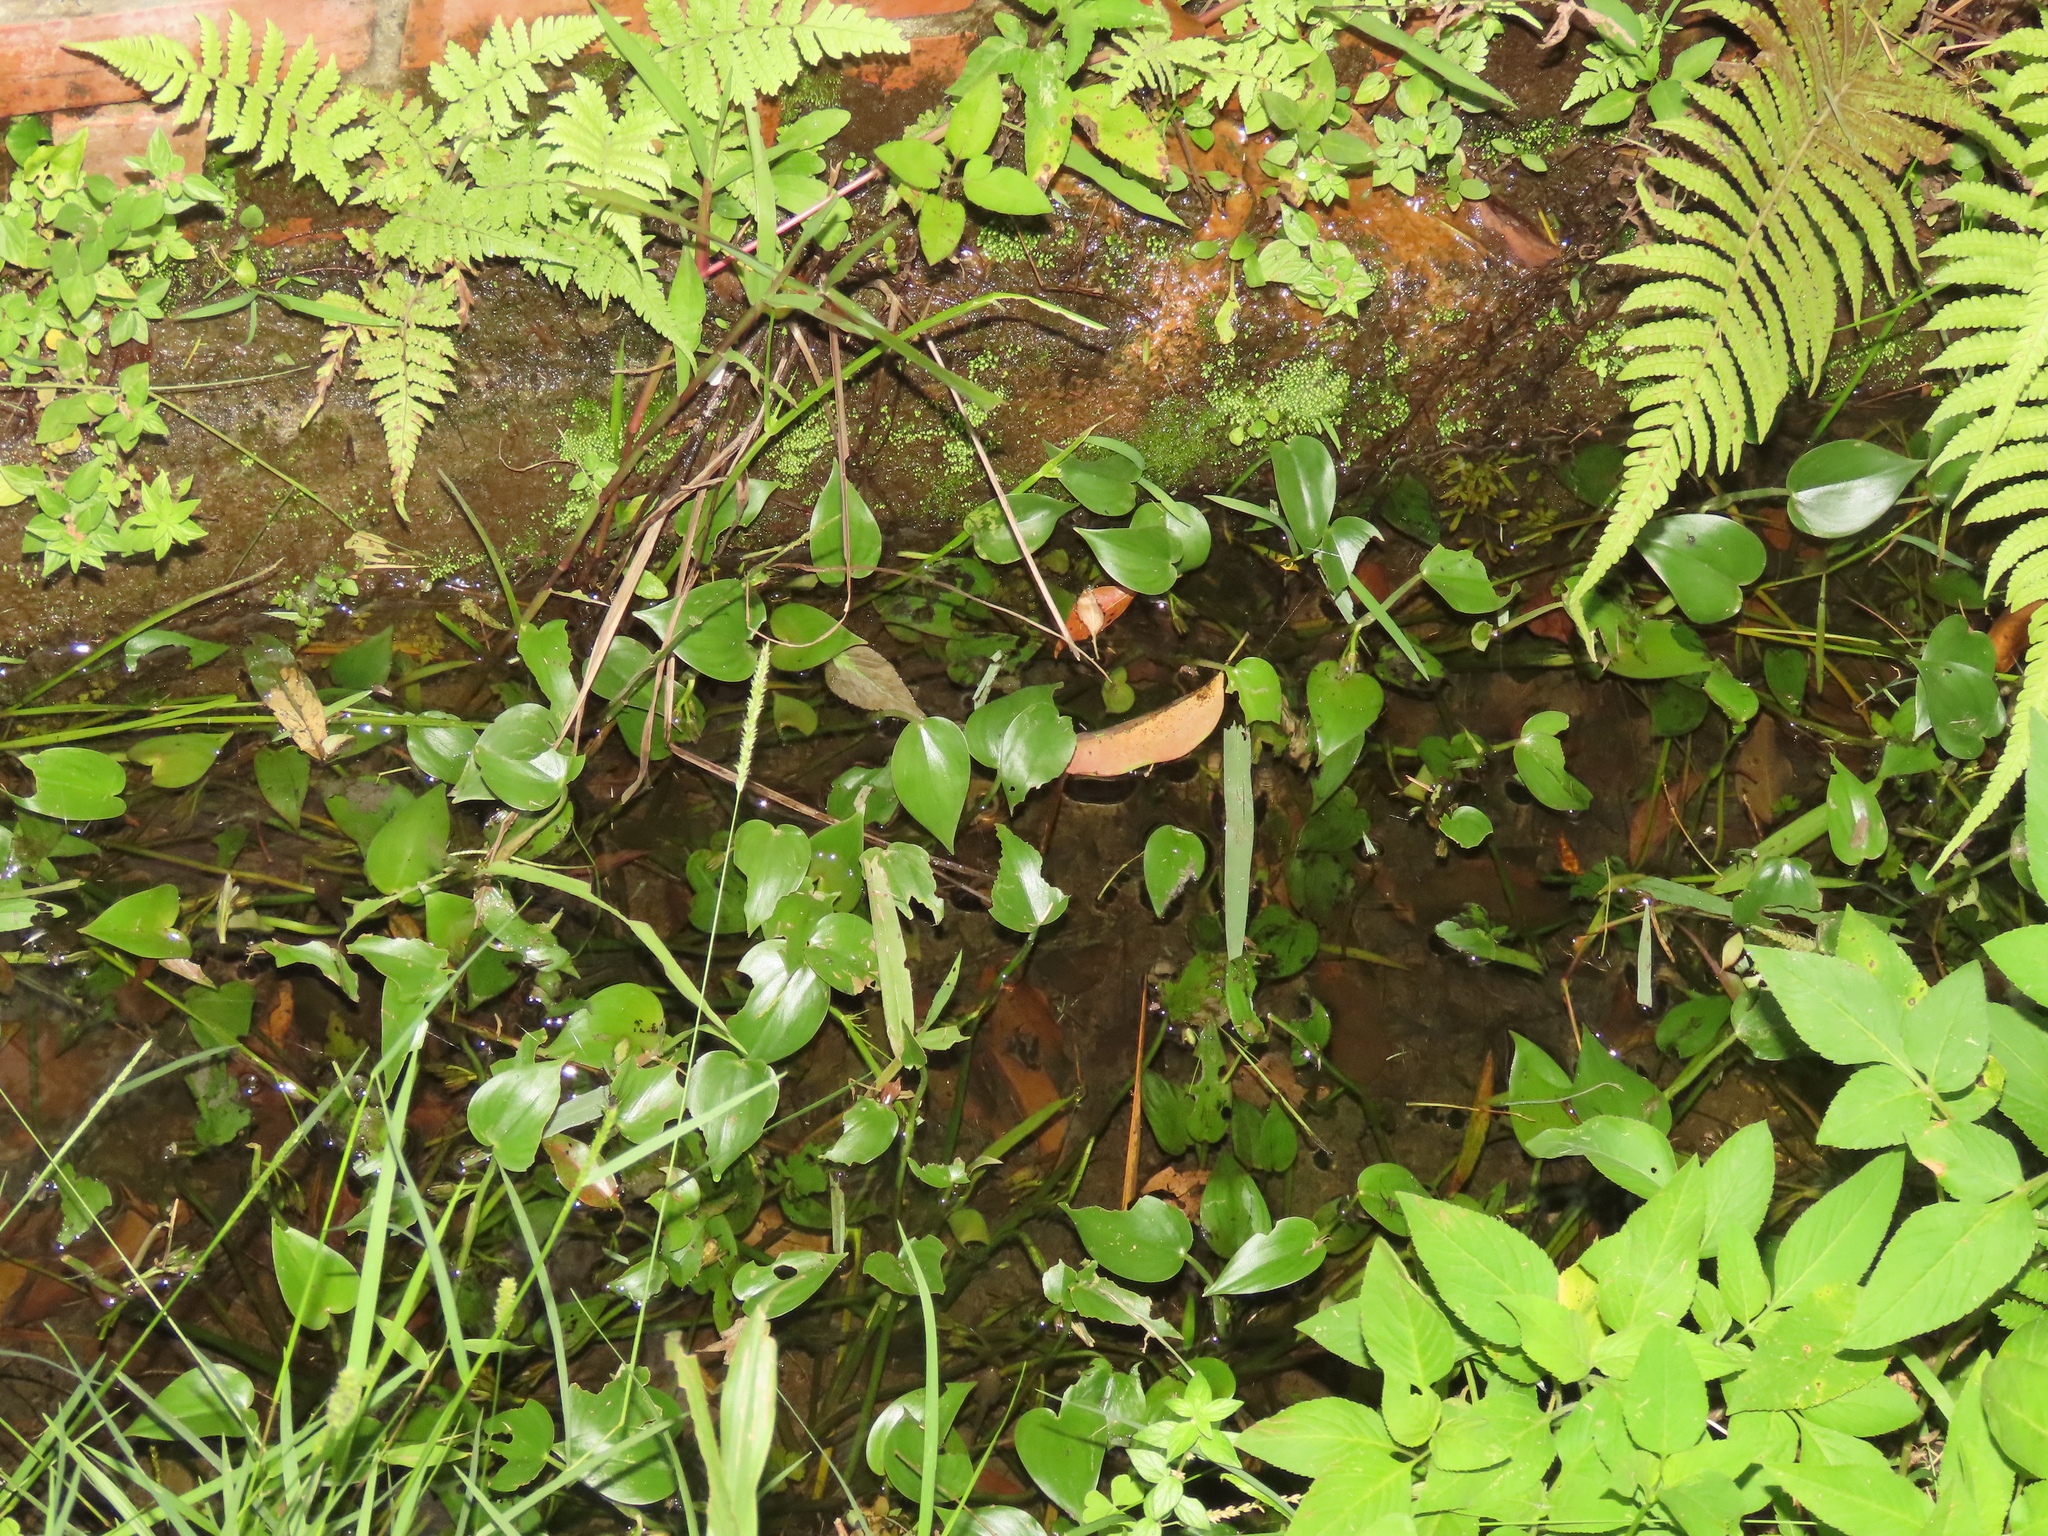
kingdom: Plantae
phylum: Tracheophyta
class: Liliopsida
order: Commelinales
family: Pontederiaceae
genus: Pontederia
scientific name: Pontederia vaginalis
